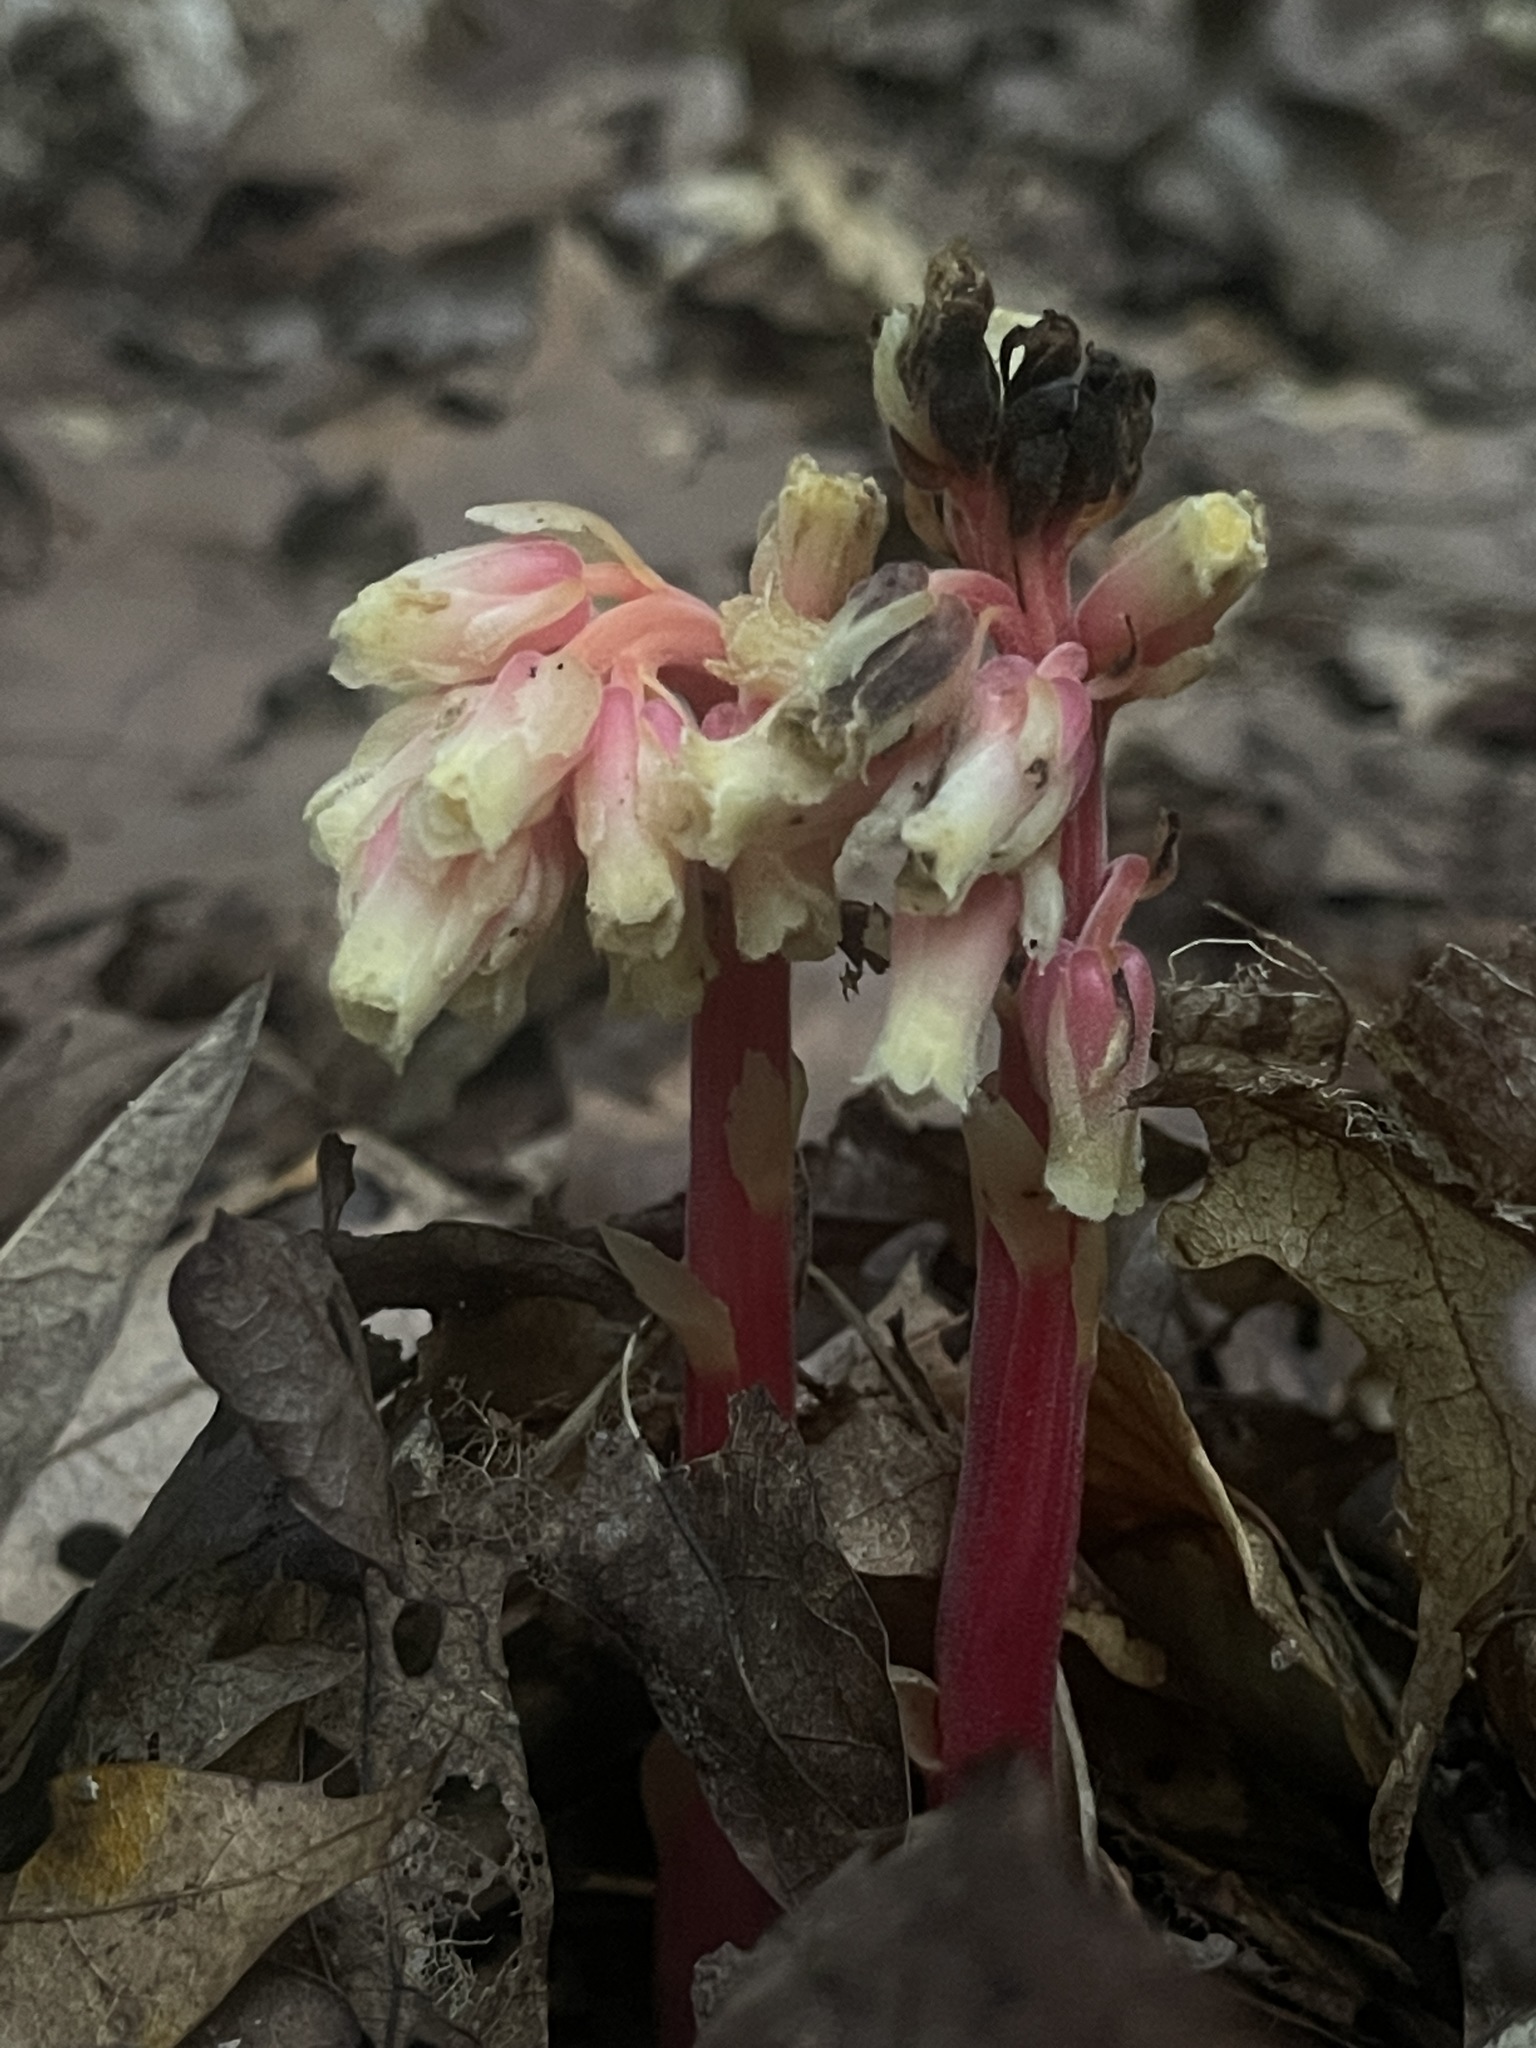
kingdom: Plantae
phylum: Tracheophyta
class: Magnoliopsida
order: Ericales
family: Ericaceae
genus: Hypopitys
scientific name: Hypopitys monotropa
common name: Yellow bird's-nest
